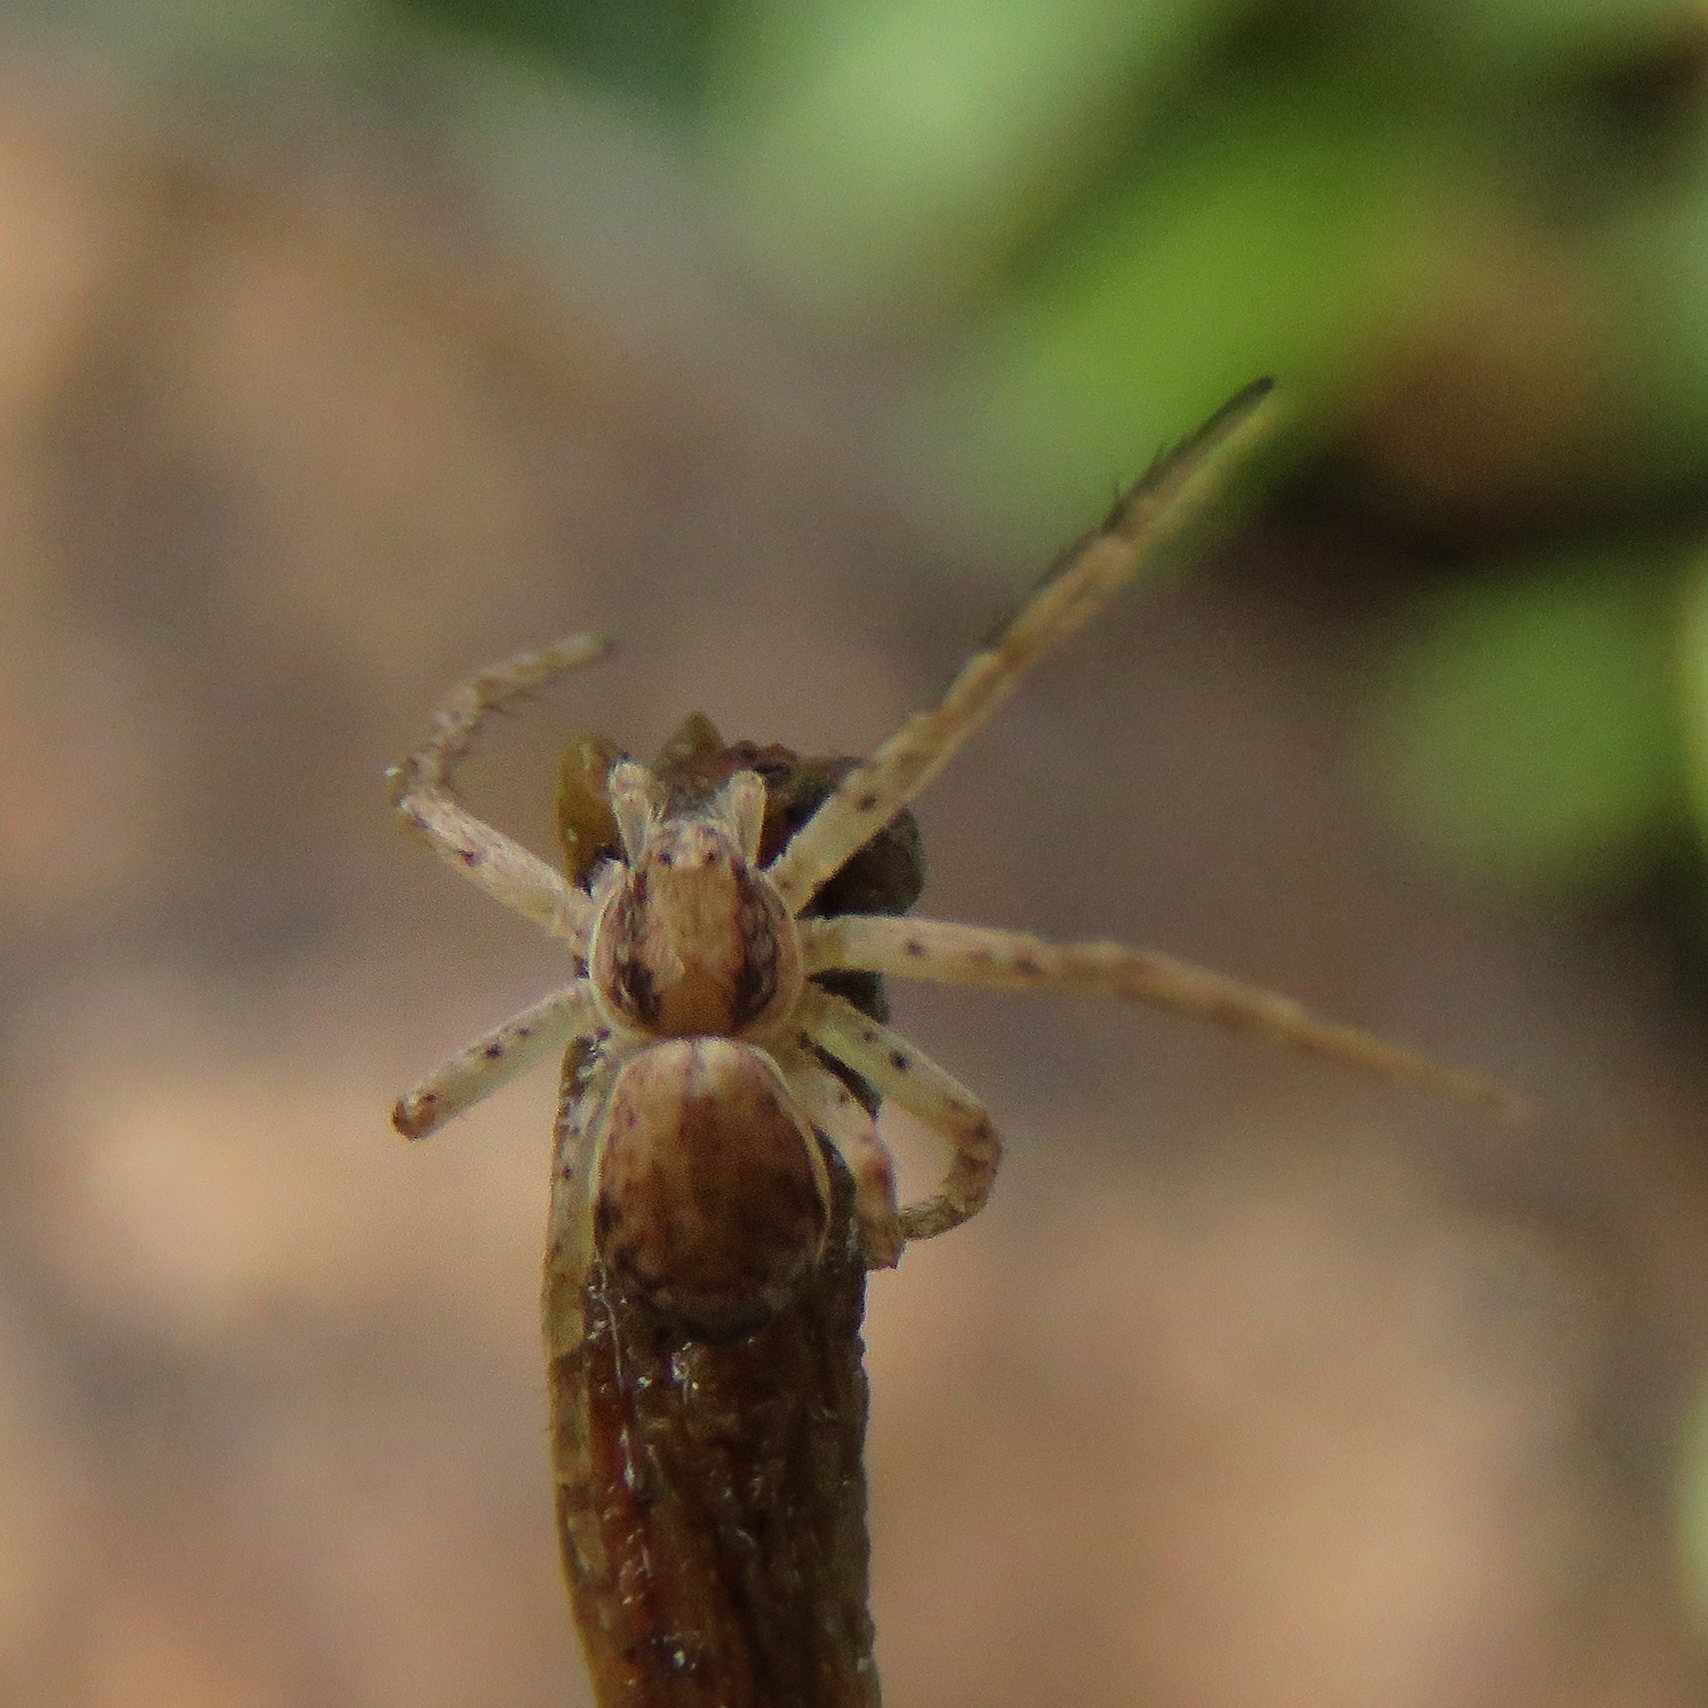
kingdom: Animalia
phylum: Arthropoda
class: Arachnida
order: Araneae
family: Philodromidae
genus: Philodromus
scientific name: Philodromus dispar
